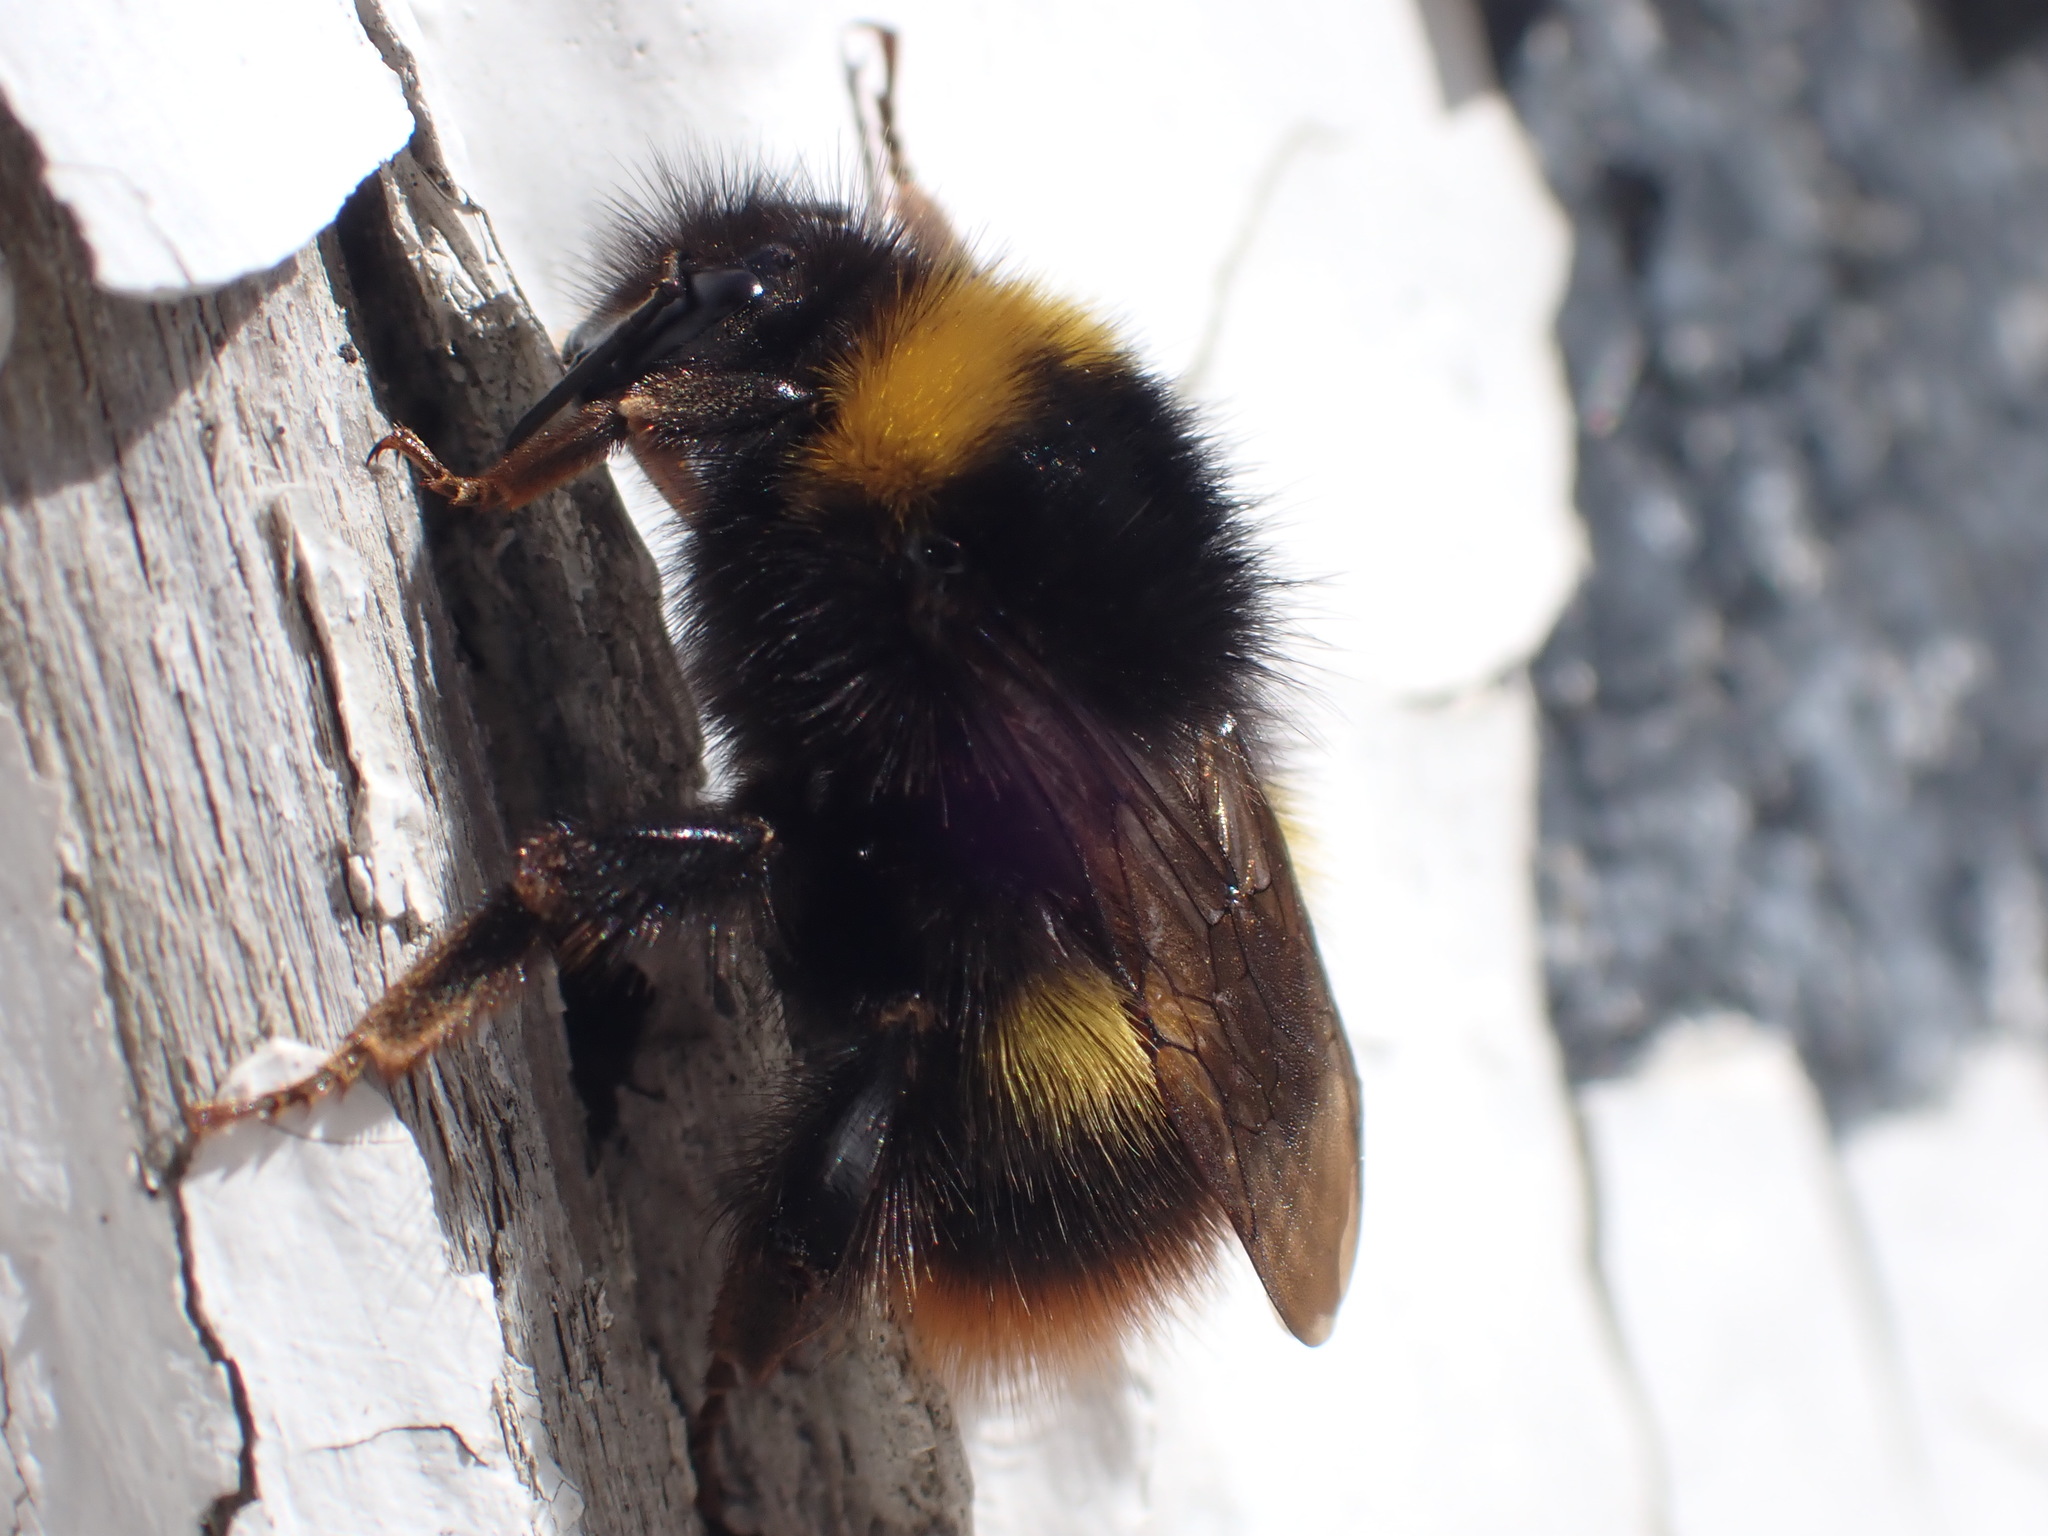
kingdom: Animalia
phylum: Arthropoda
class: Insecta
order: Hymenoptera
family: Apidae
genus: Bombus
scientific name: Bombus pratorum
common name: Early humble-bee
